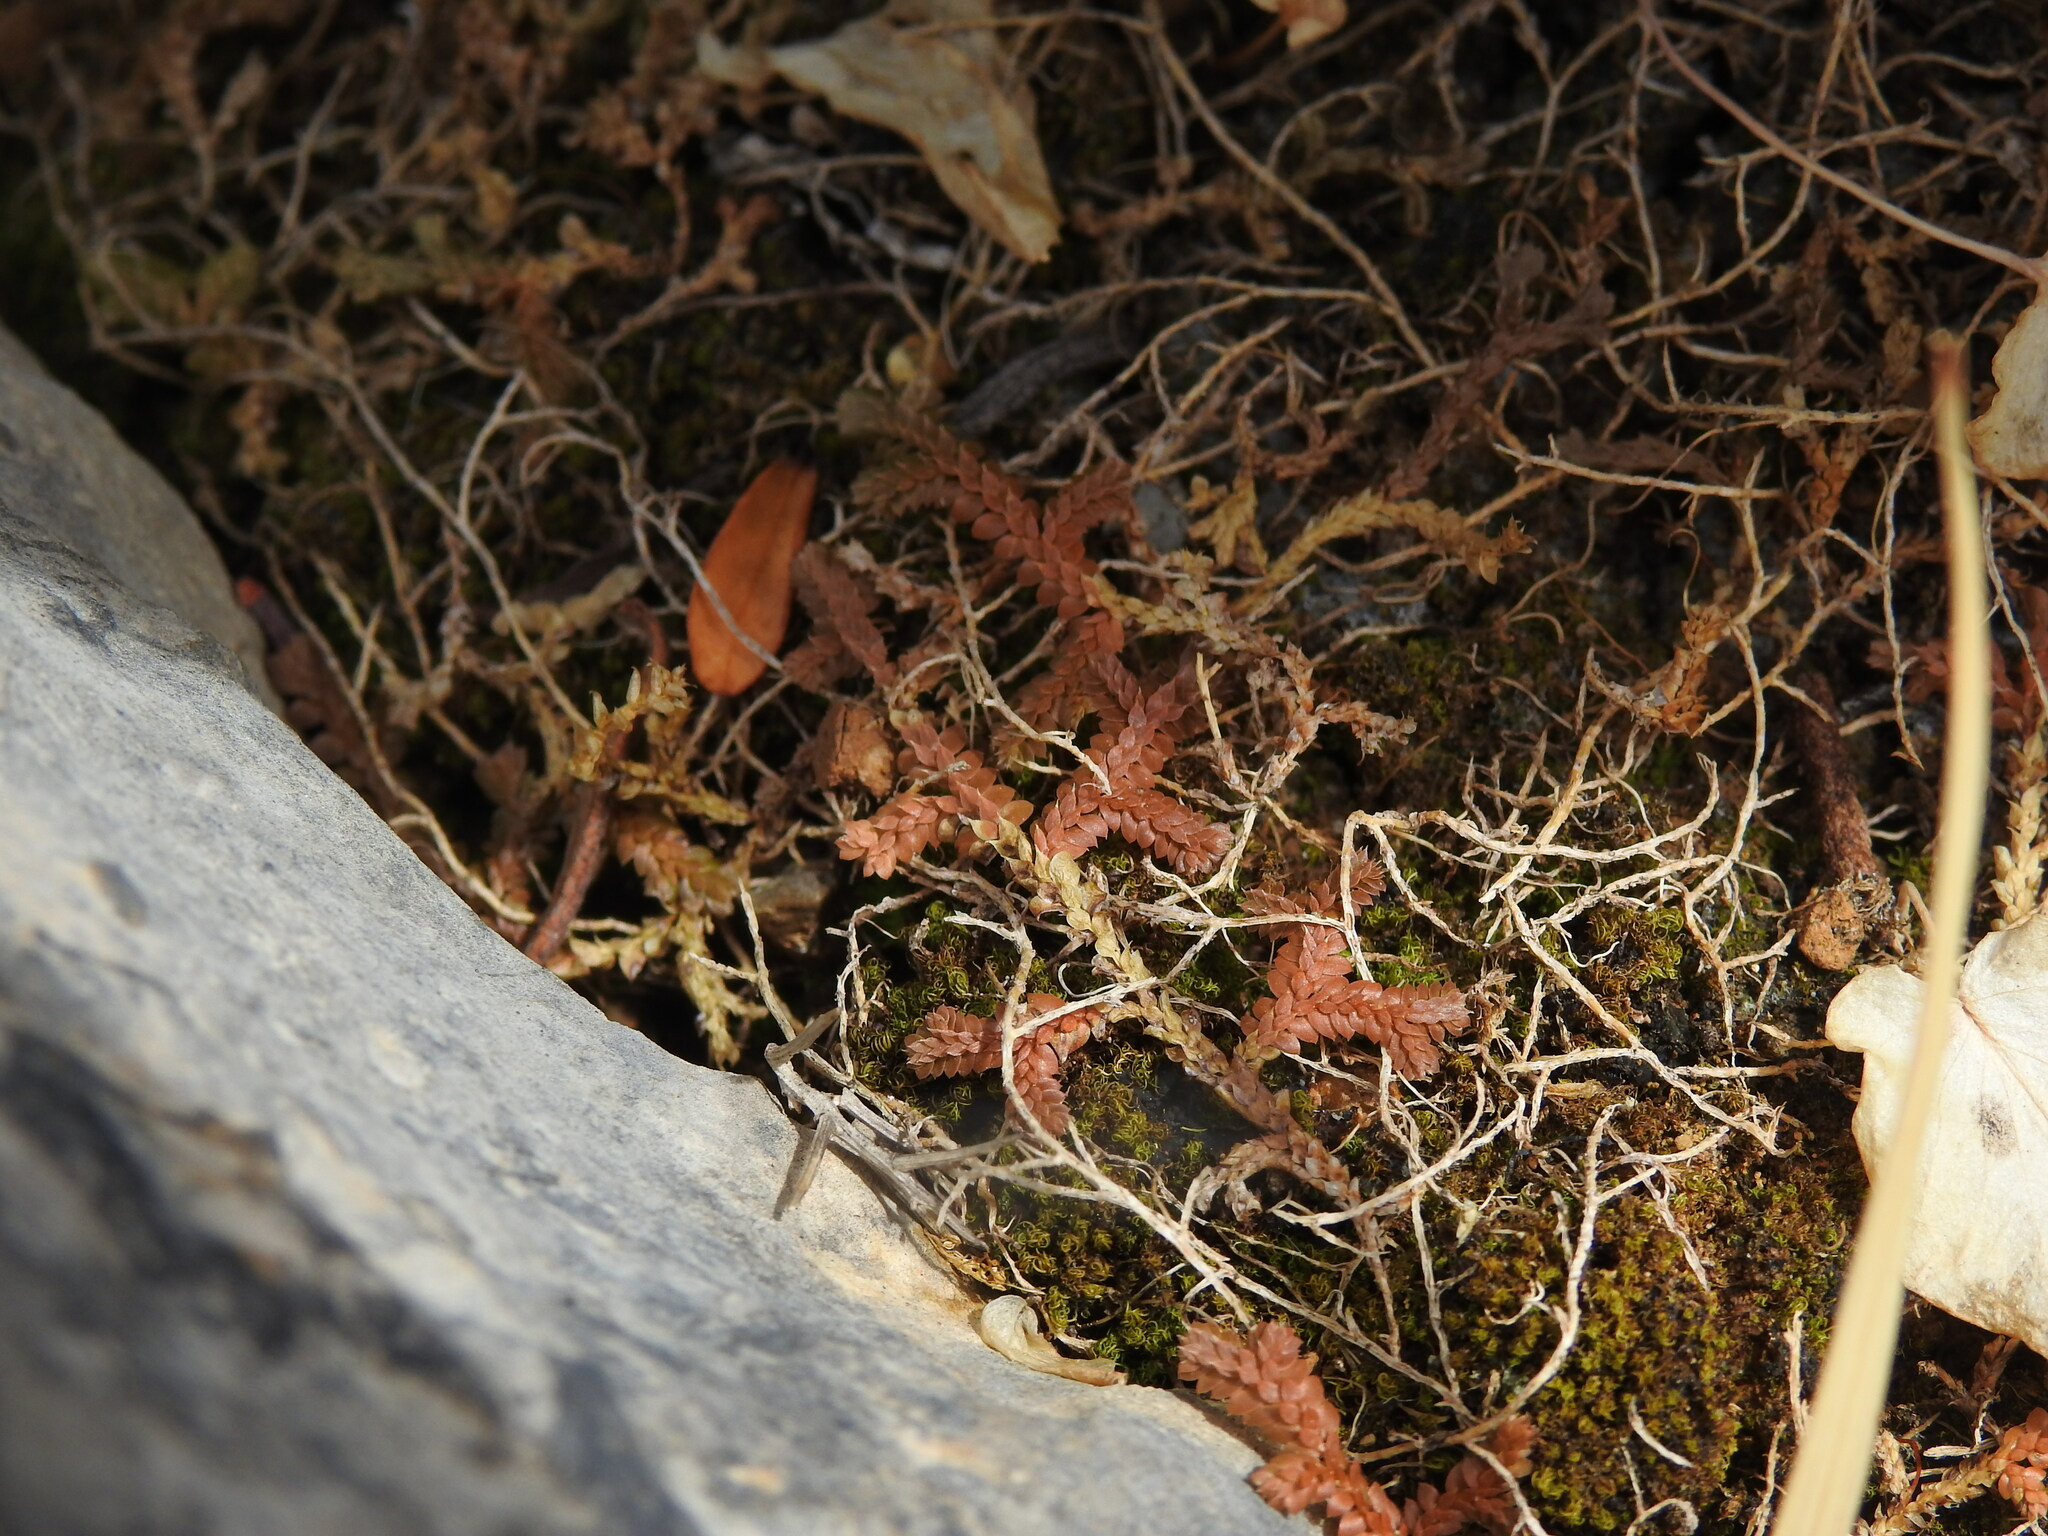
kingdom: Plantae
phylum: Tracheophyta
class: Lycopodiopsida
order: Selaginellales
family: Selaginellaceae
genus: Selaginella
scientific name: Selaginella denticulata
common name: Toothed-leaved clubmoss
